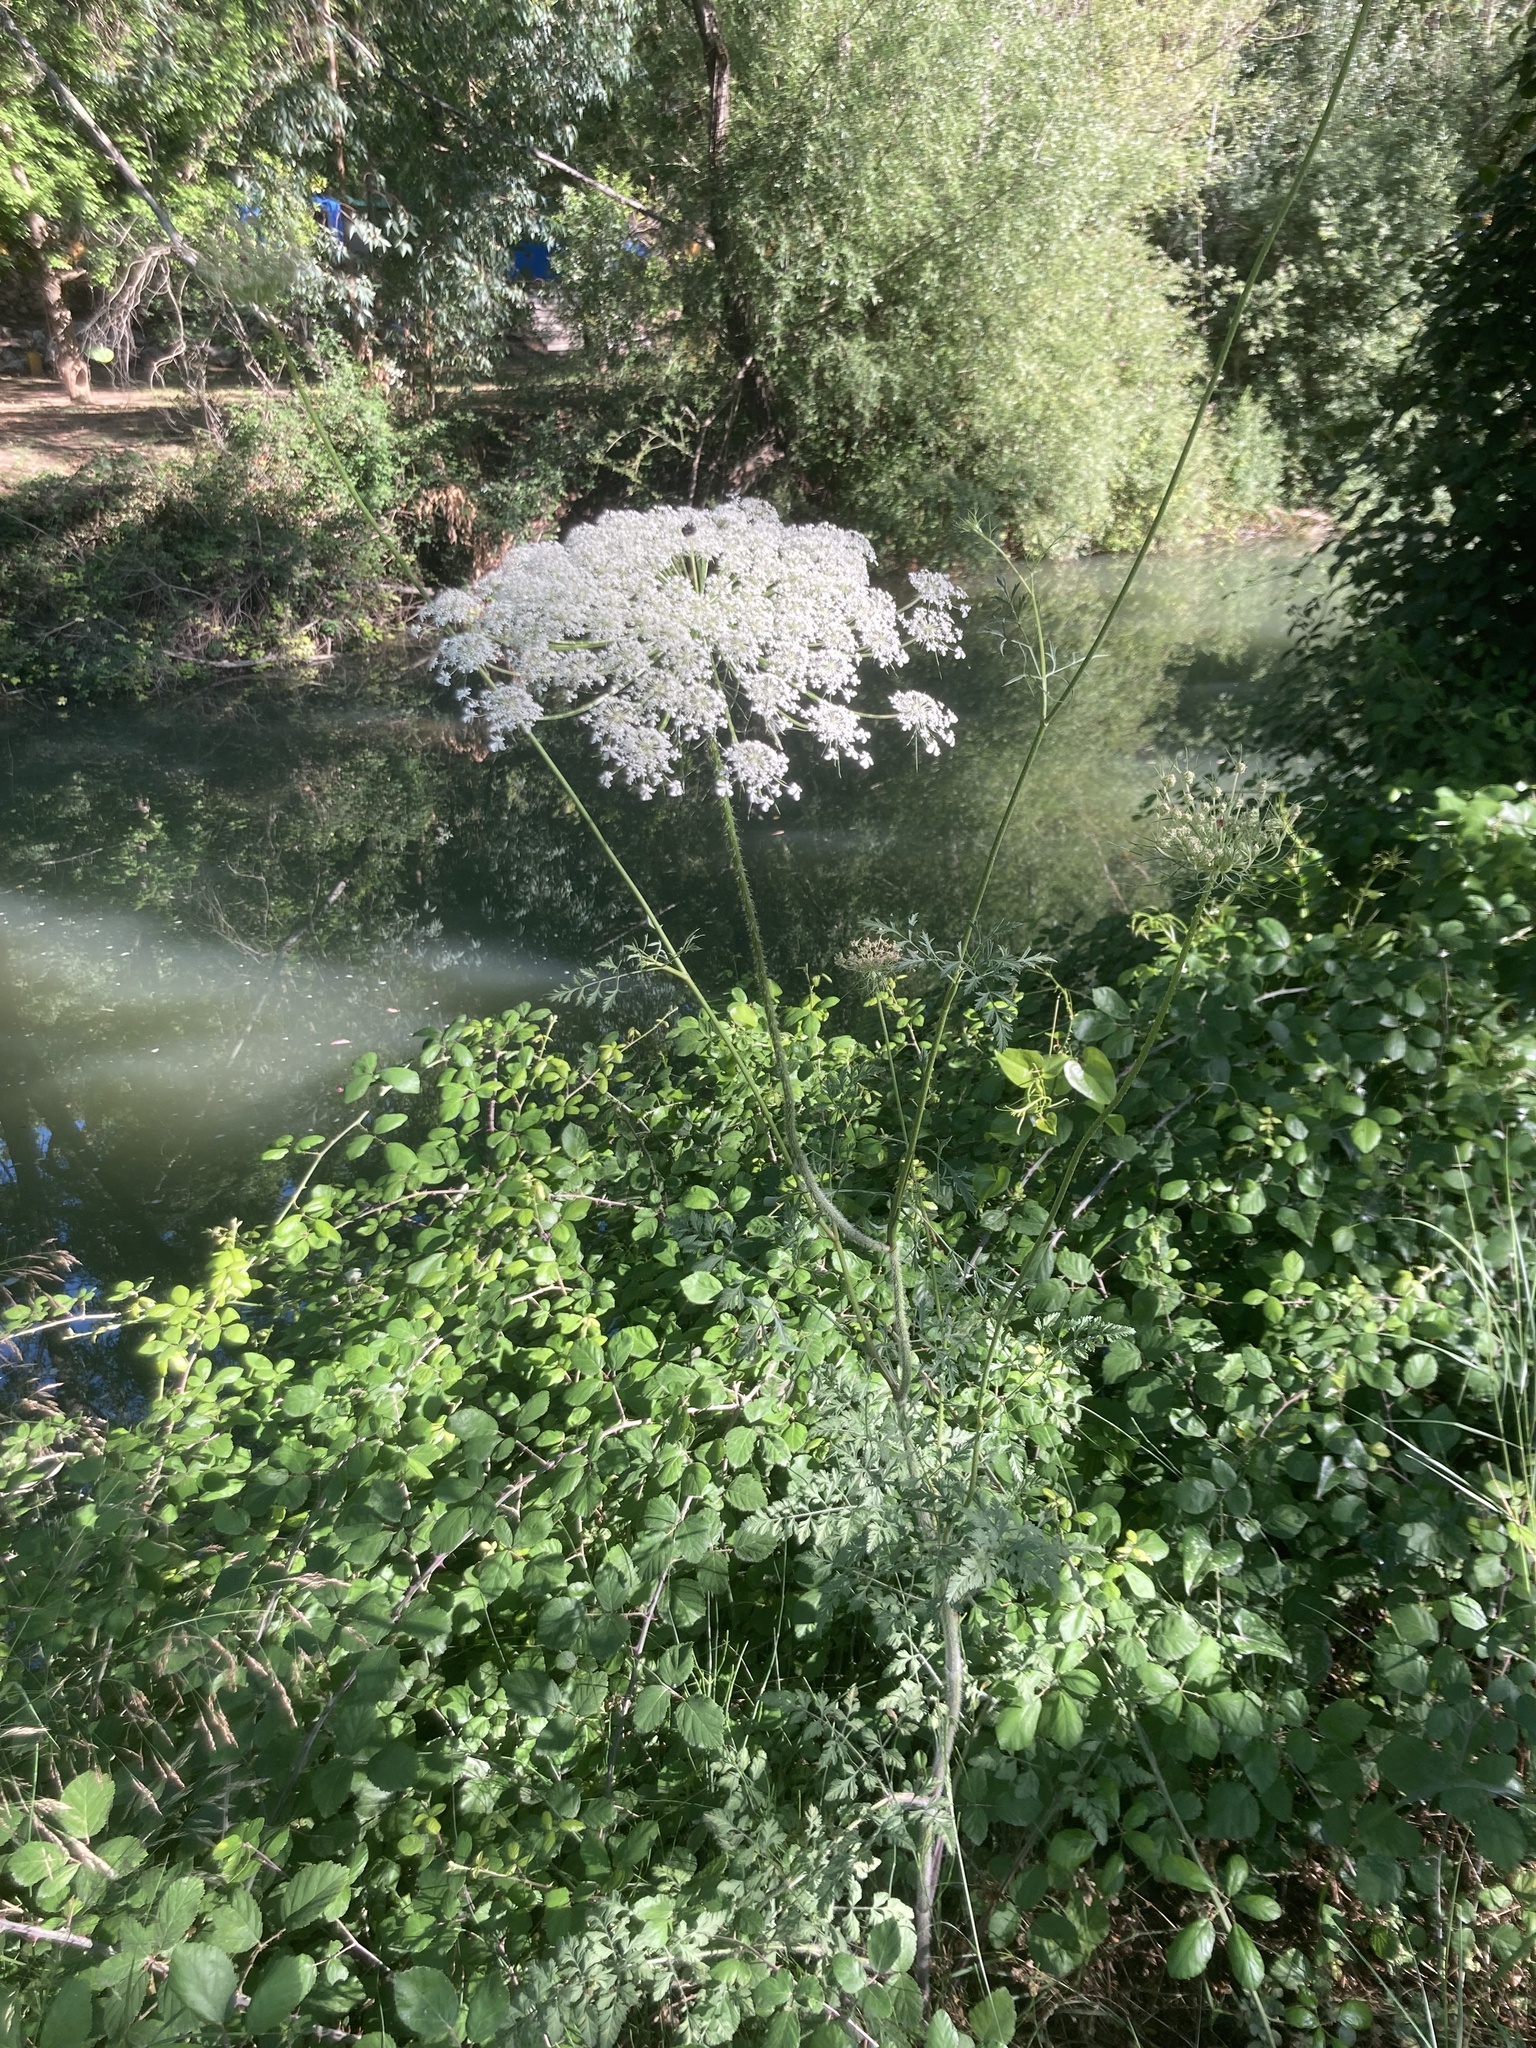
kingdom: Plantae
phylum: Tracheophyta
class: Magnoliopsida
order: Apiales
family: Apiaceae
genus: Daucus
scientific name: Daucus carota
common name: Wild carrot
